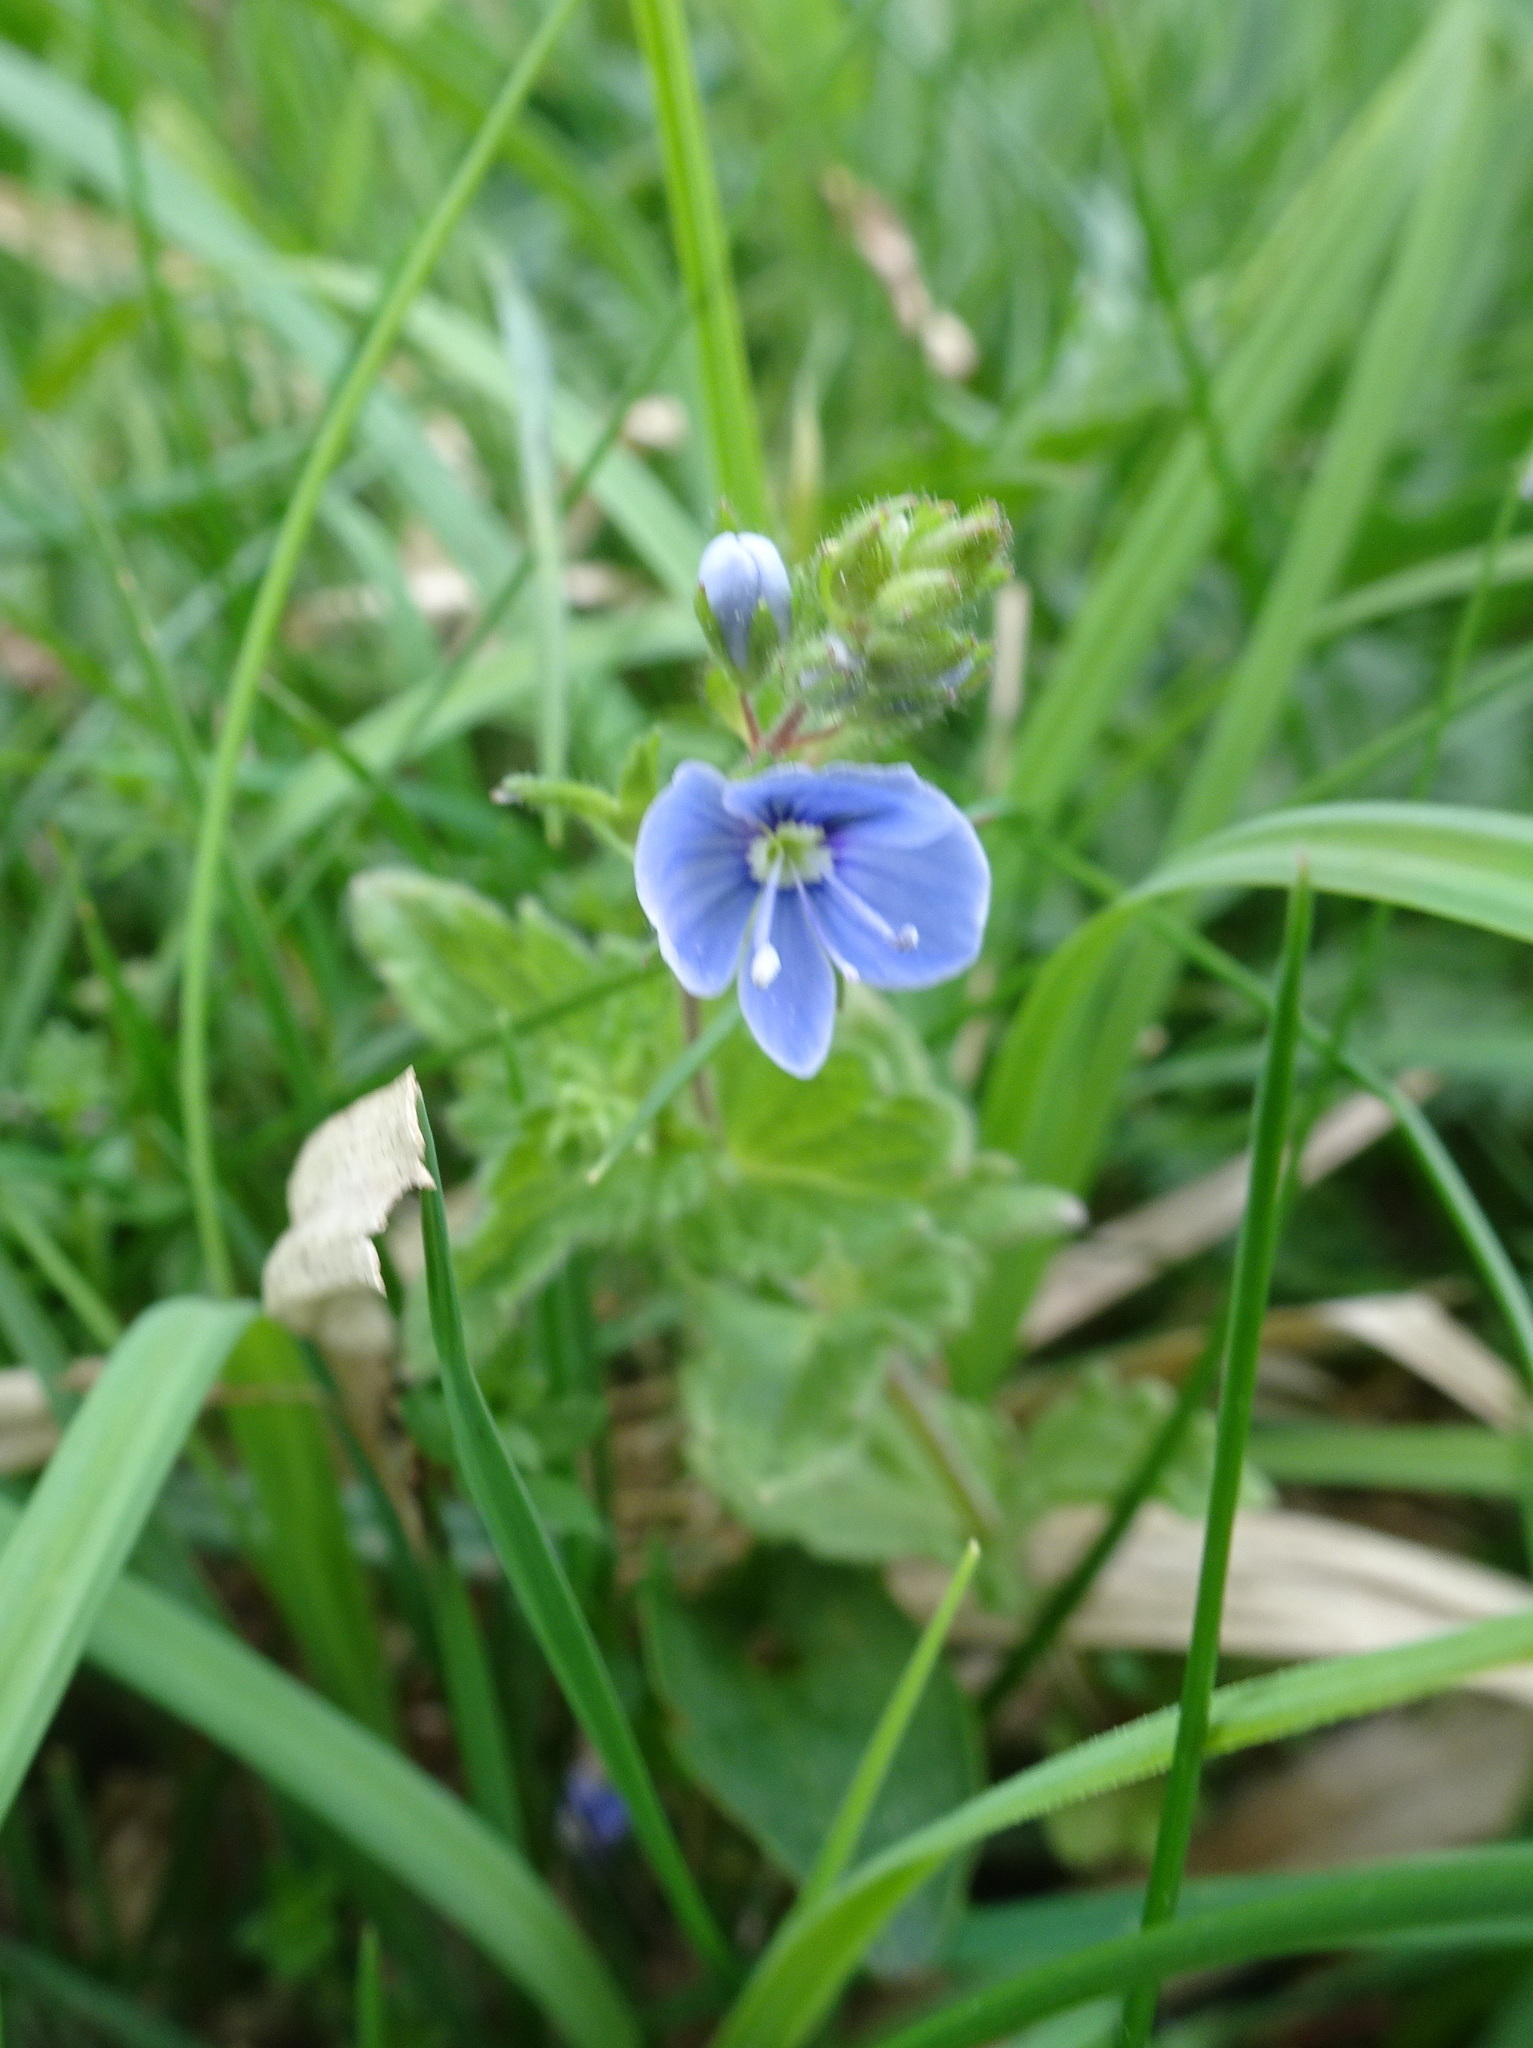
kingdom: Plantae
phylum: Tracheophyta
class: Magnoliopsida
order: Lamiales
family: Plantaginaceae
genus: Veronica
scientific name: Veronica chamaedrys
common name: Germander speedwell
